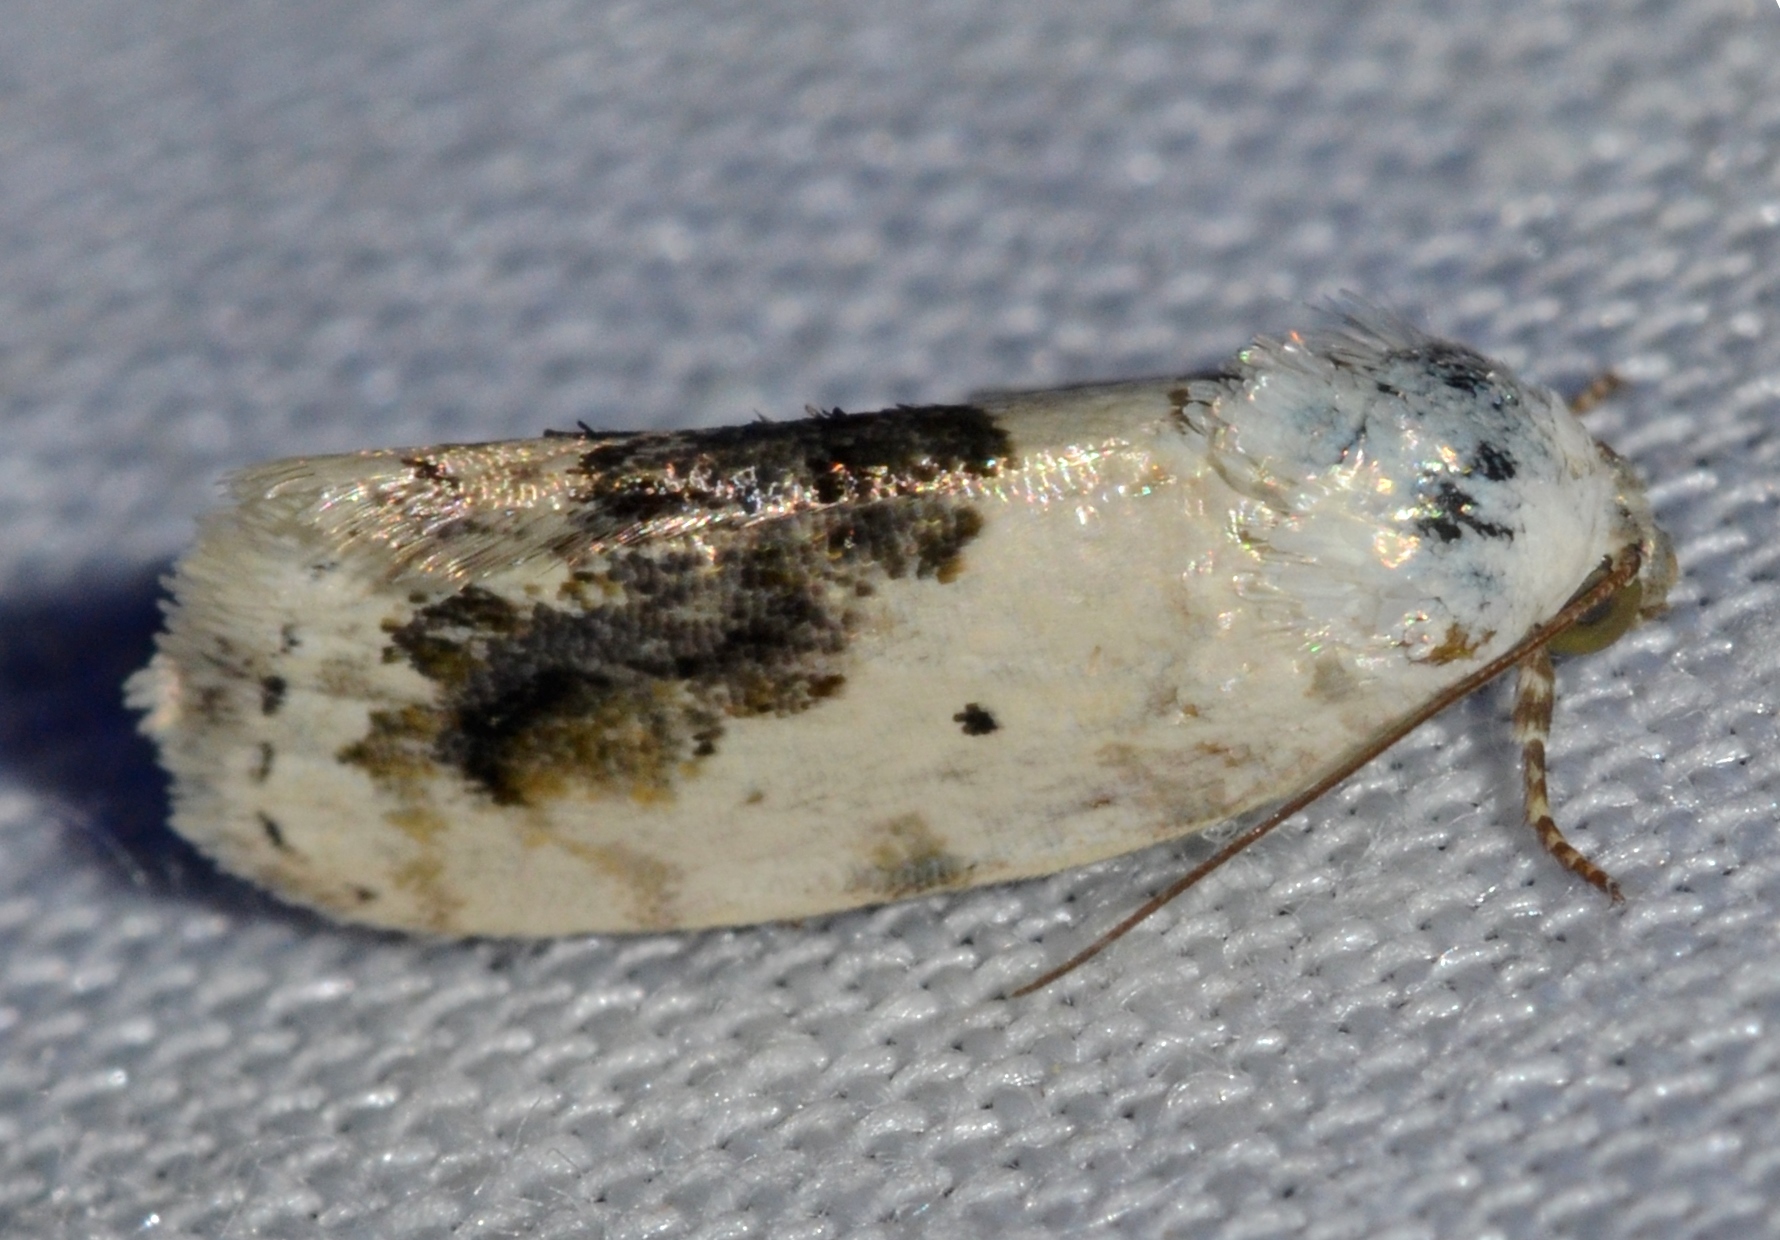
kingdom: Animalia
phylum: Arthropoda
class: Insecta
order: Lepidoptera
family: Noctuidae
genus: Acontia
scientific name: Acontia erastrioides
